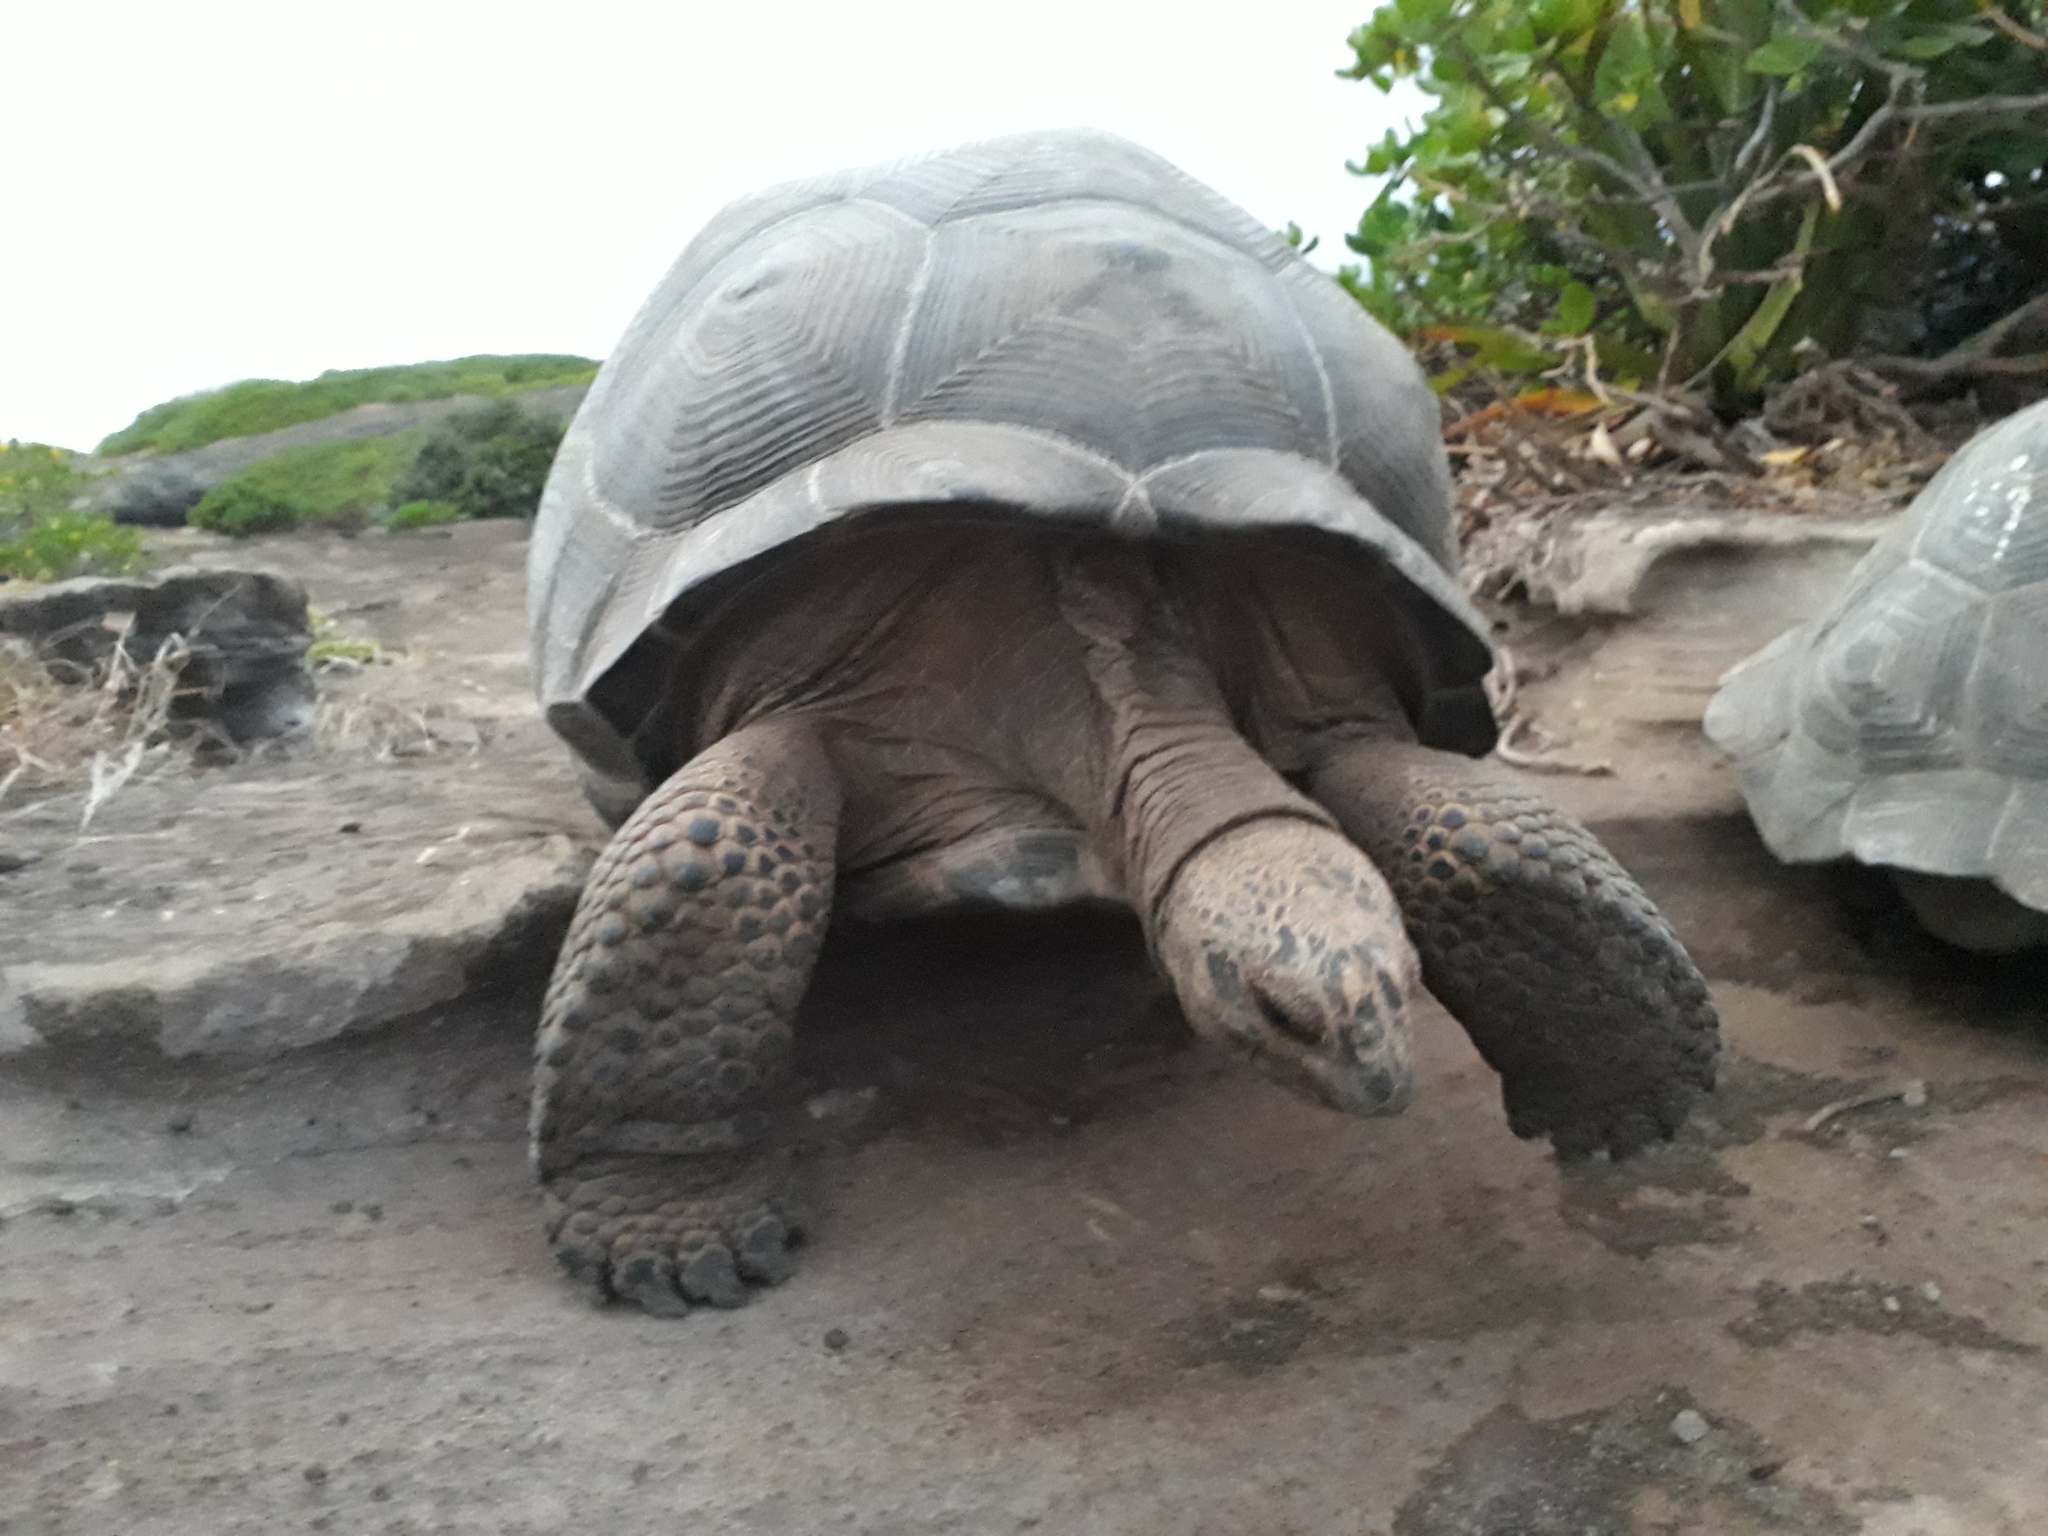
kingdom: Animalia
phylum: Chordata
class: Testudines
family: Testudinidae
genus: Aldabrachelys
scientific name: Aldabrachelys gigantea
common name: Aldabra giant tortoise
